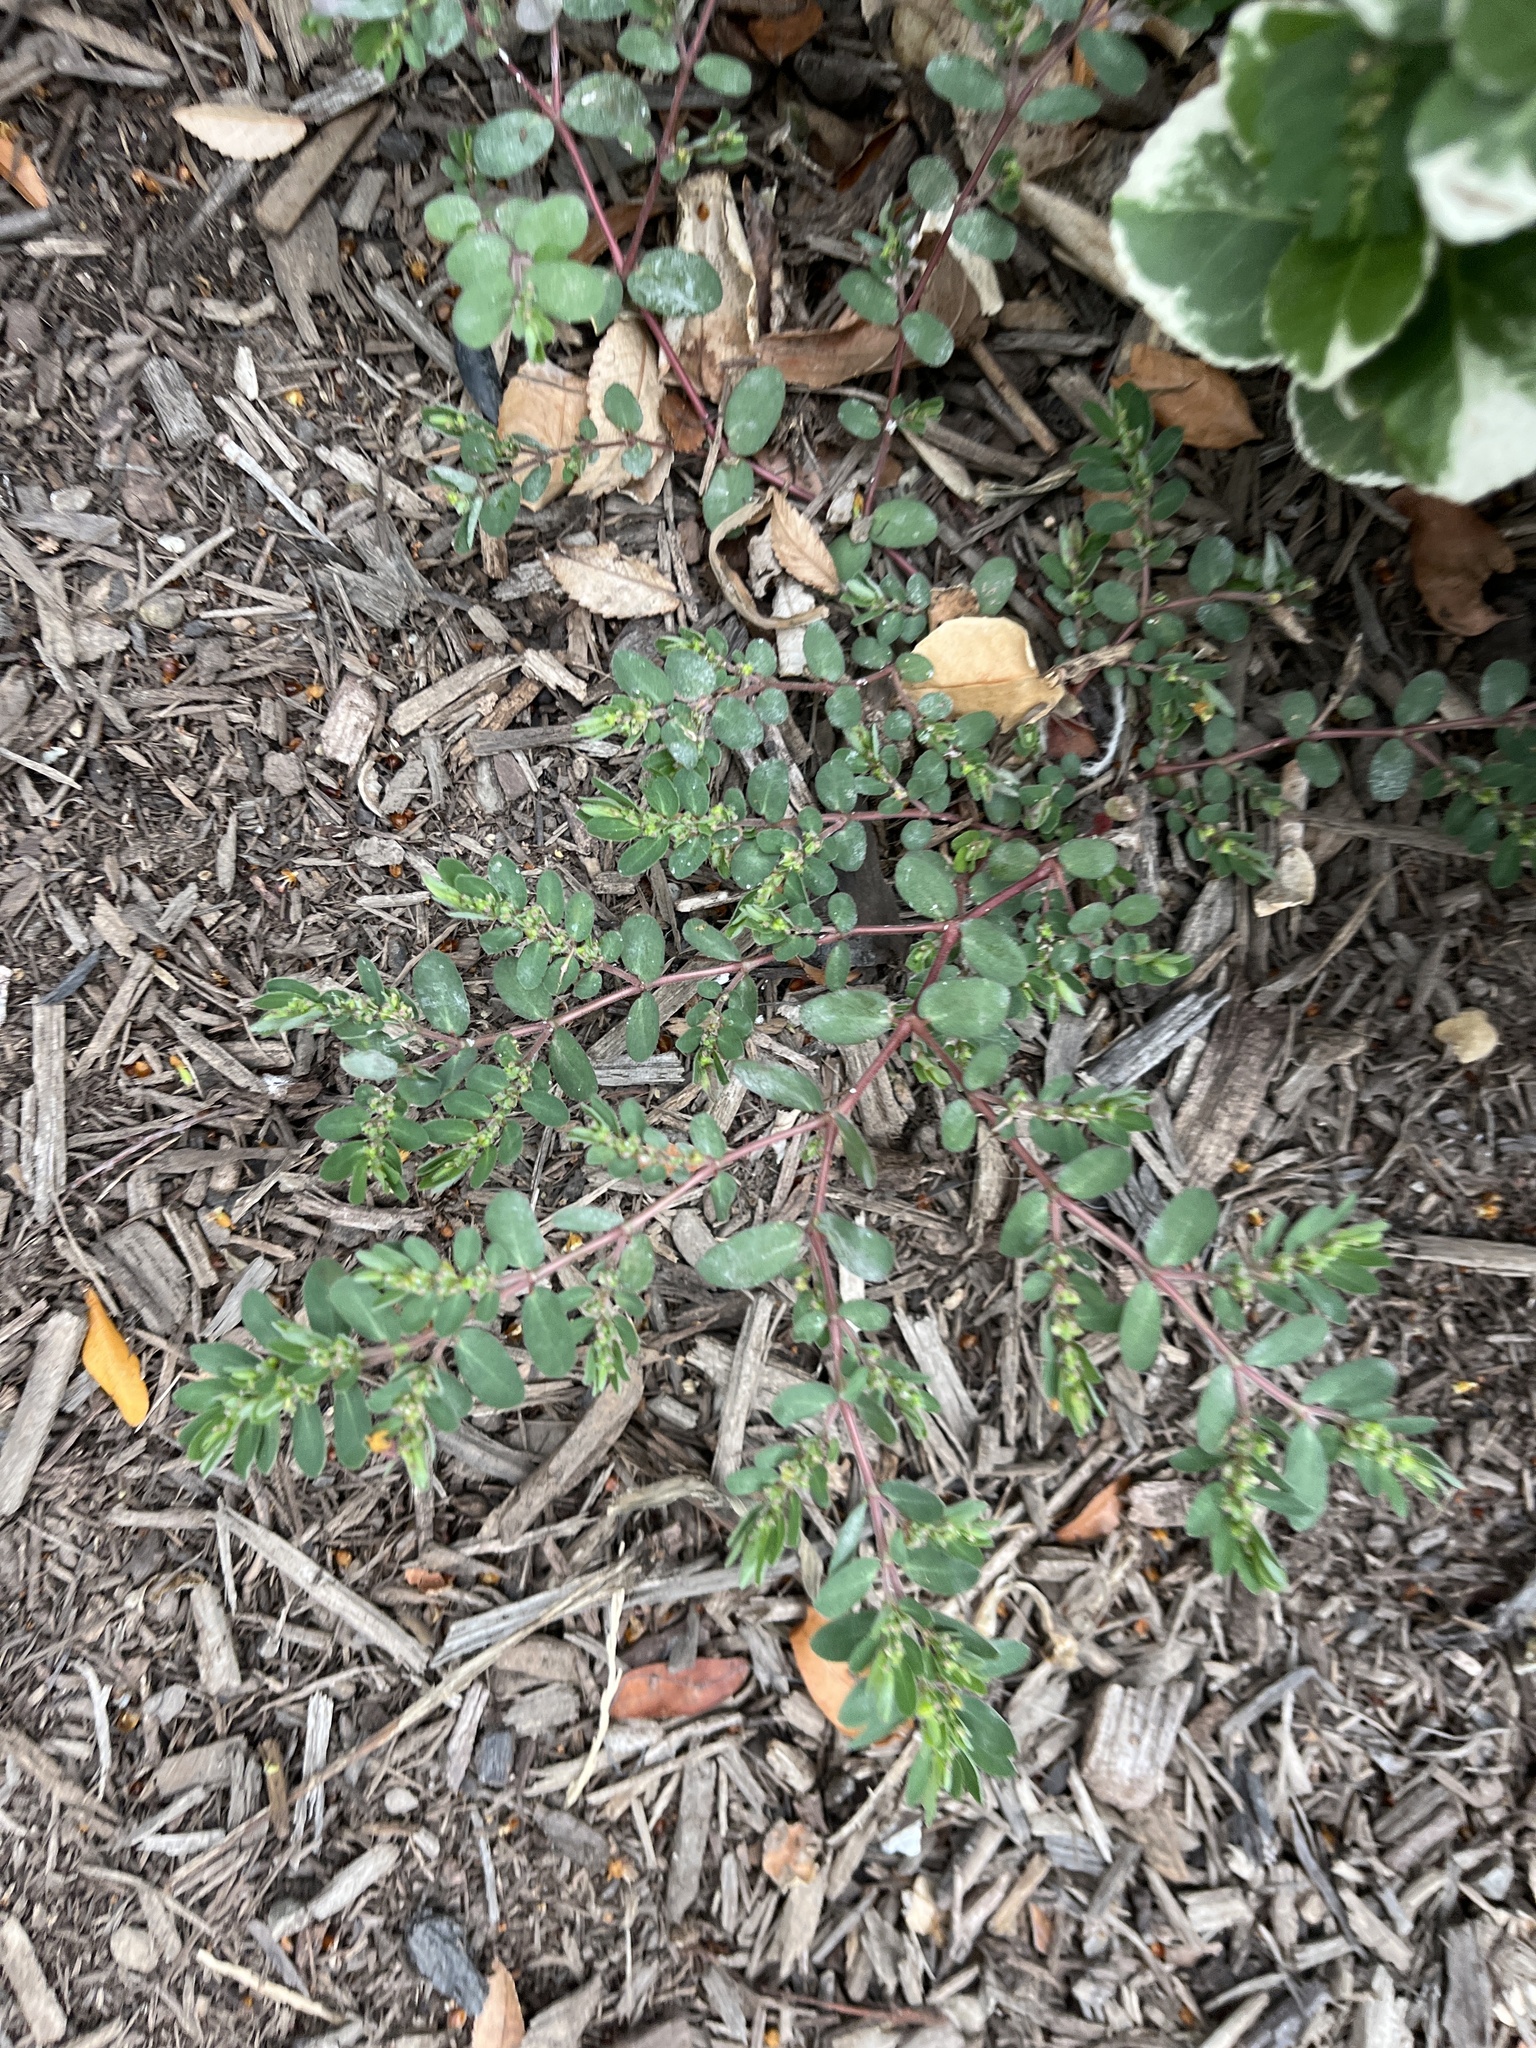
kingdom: Plantae
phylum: Tracheophyta
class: Magnoliopsida
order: Malpighiales
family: Euphorbiaceae
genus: Euphorbia
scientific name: Euphorbia prostrata
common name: Prostrate sandmat
